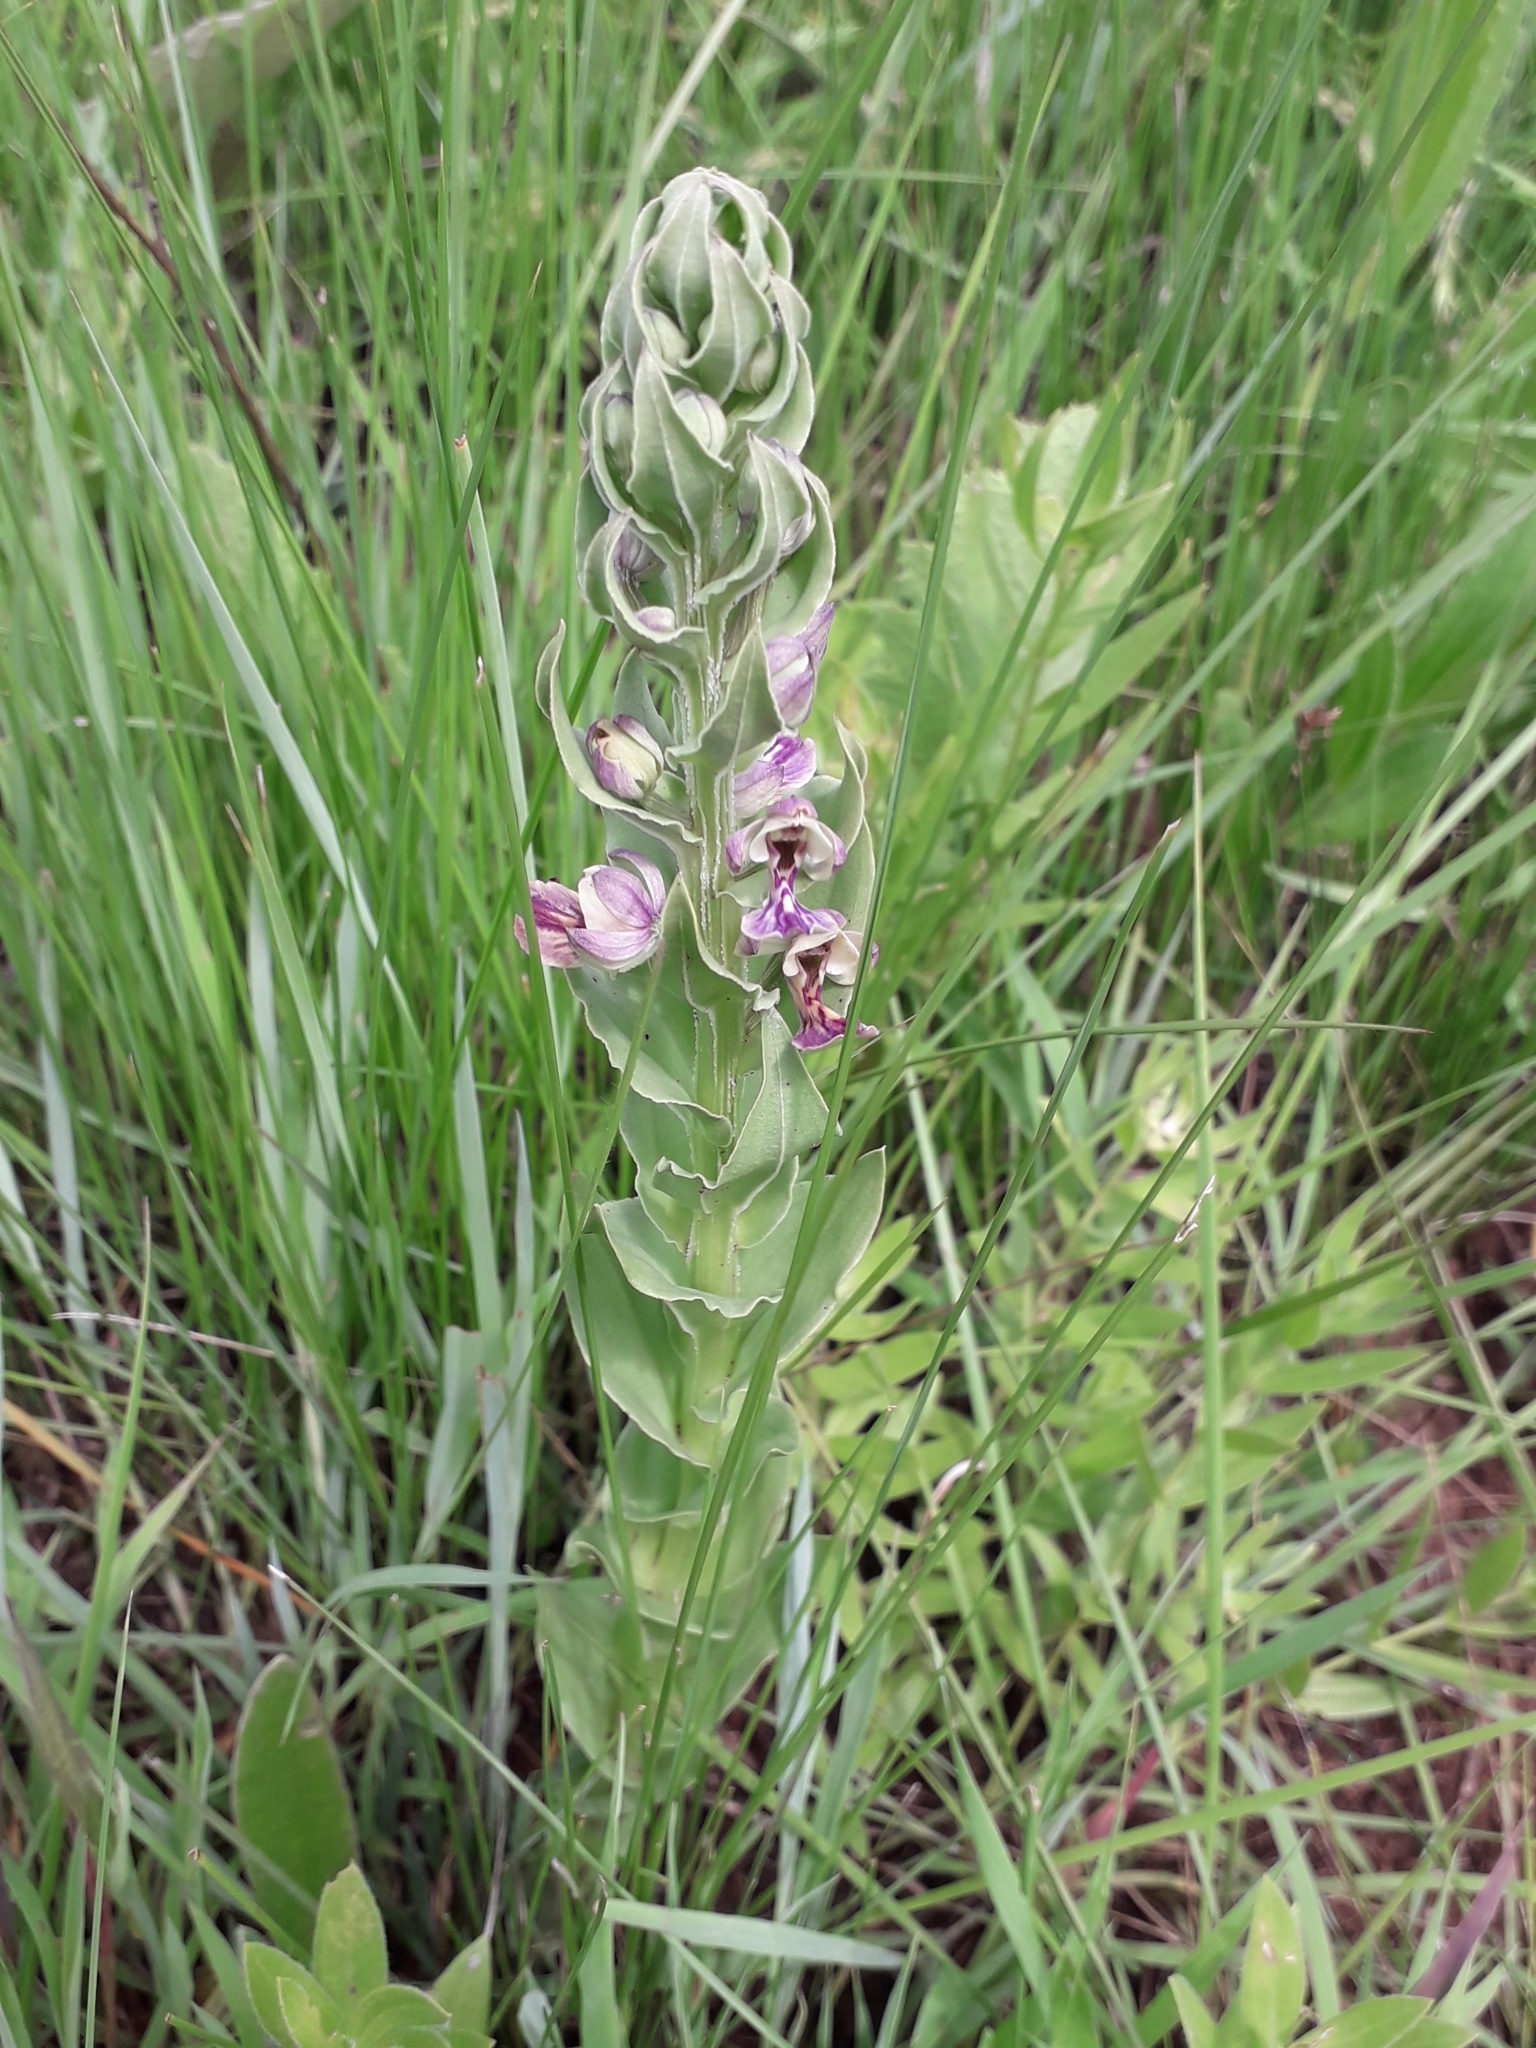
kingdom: Plantae
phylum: Tracheophyta
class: Liliopsida
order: Asparagales
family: Orchidaceae
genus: Brachycorythis
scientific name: Brachycorythis ovata
